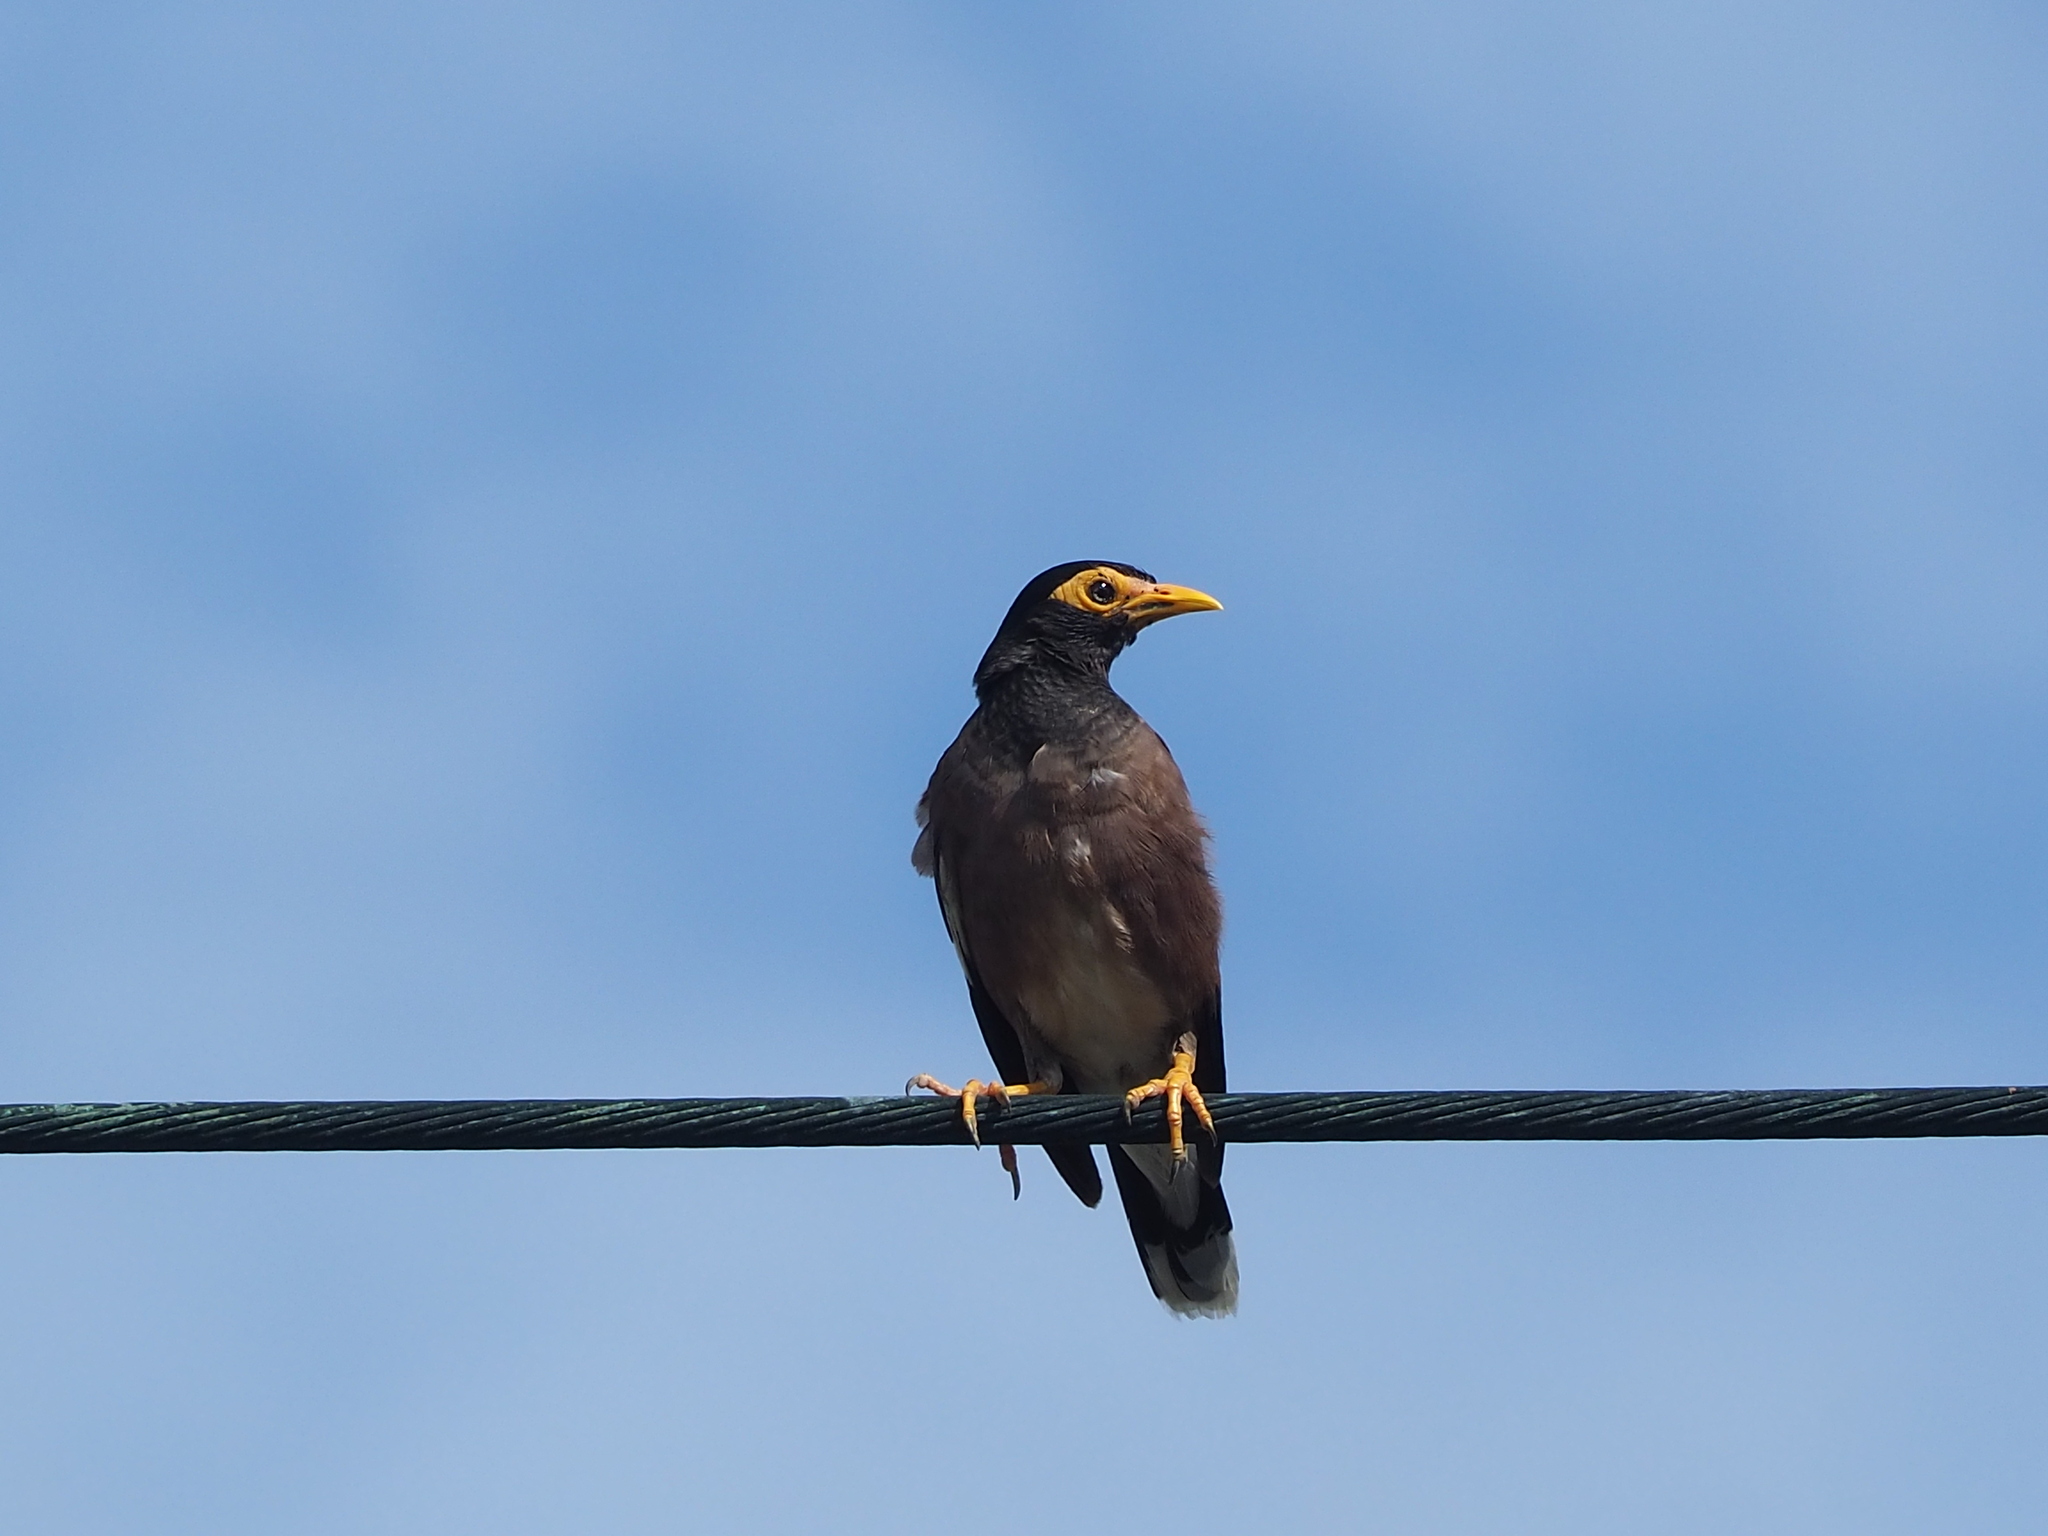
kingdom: Animalia
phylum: Chordata
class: Aves
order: Passeriformes
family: Sturnidae
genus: Acridotheres
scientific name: Acridotheres tristis
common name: Common myna
